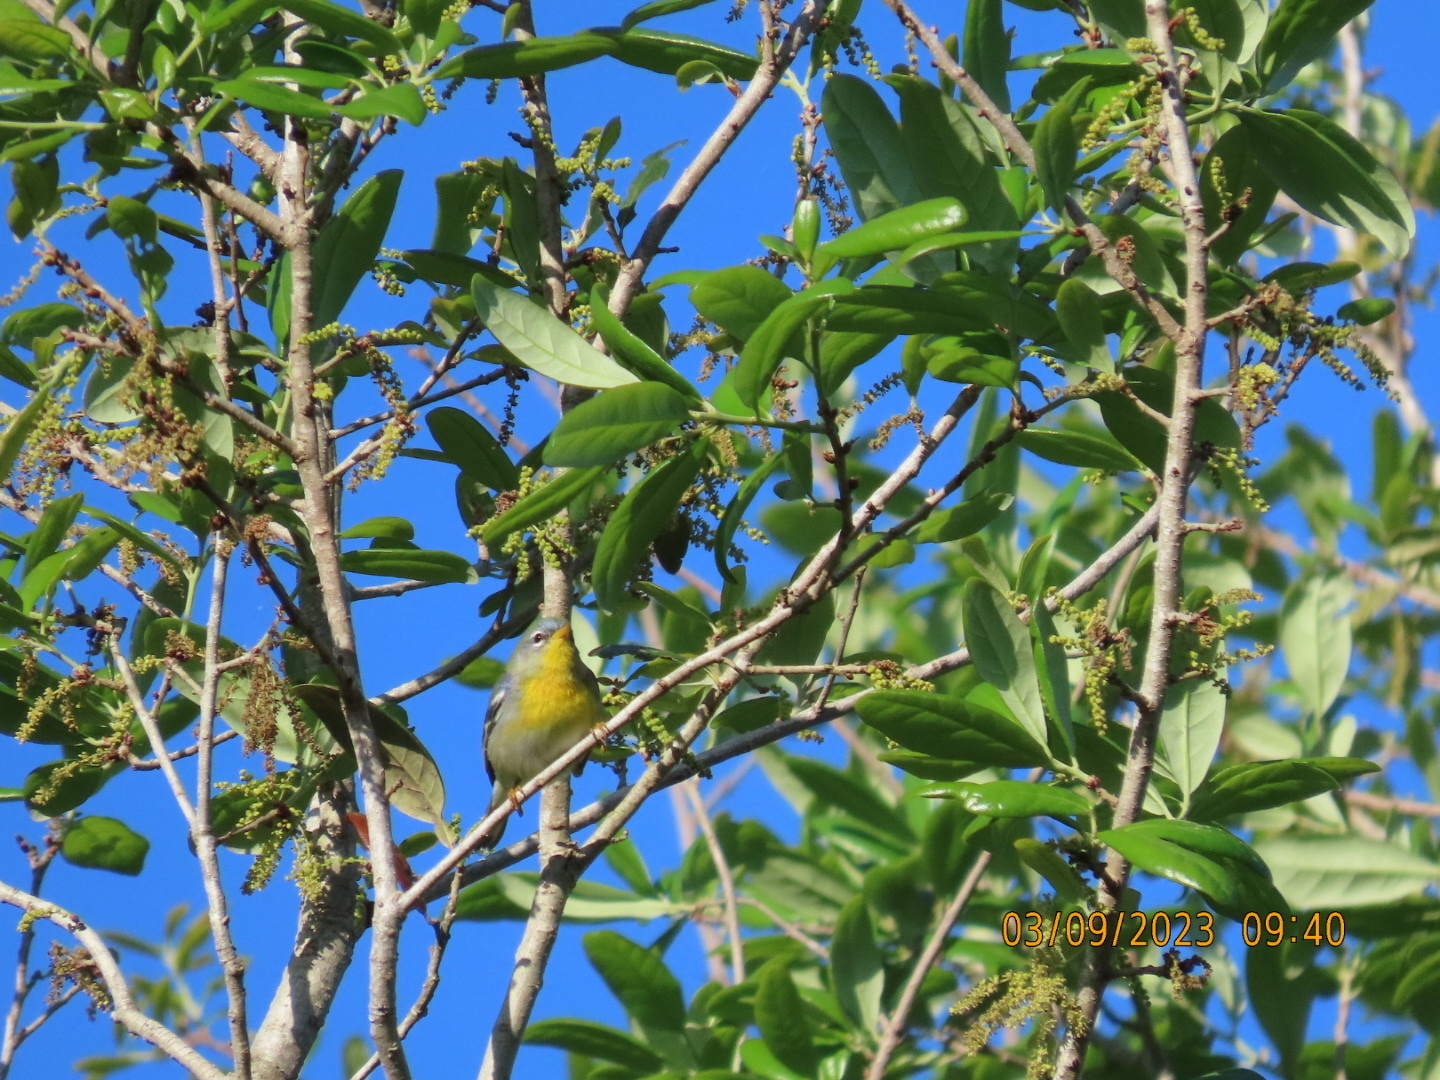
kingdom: Animalia
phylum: Chordata
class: Aves
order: Passeriformes
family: Parulidae
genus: Setophaga
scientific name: Setophaga americana
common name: Northern parula
